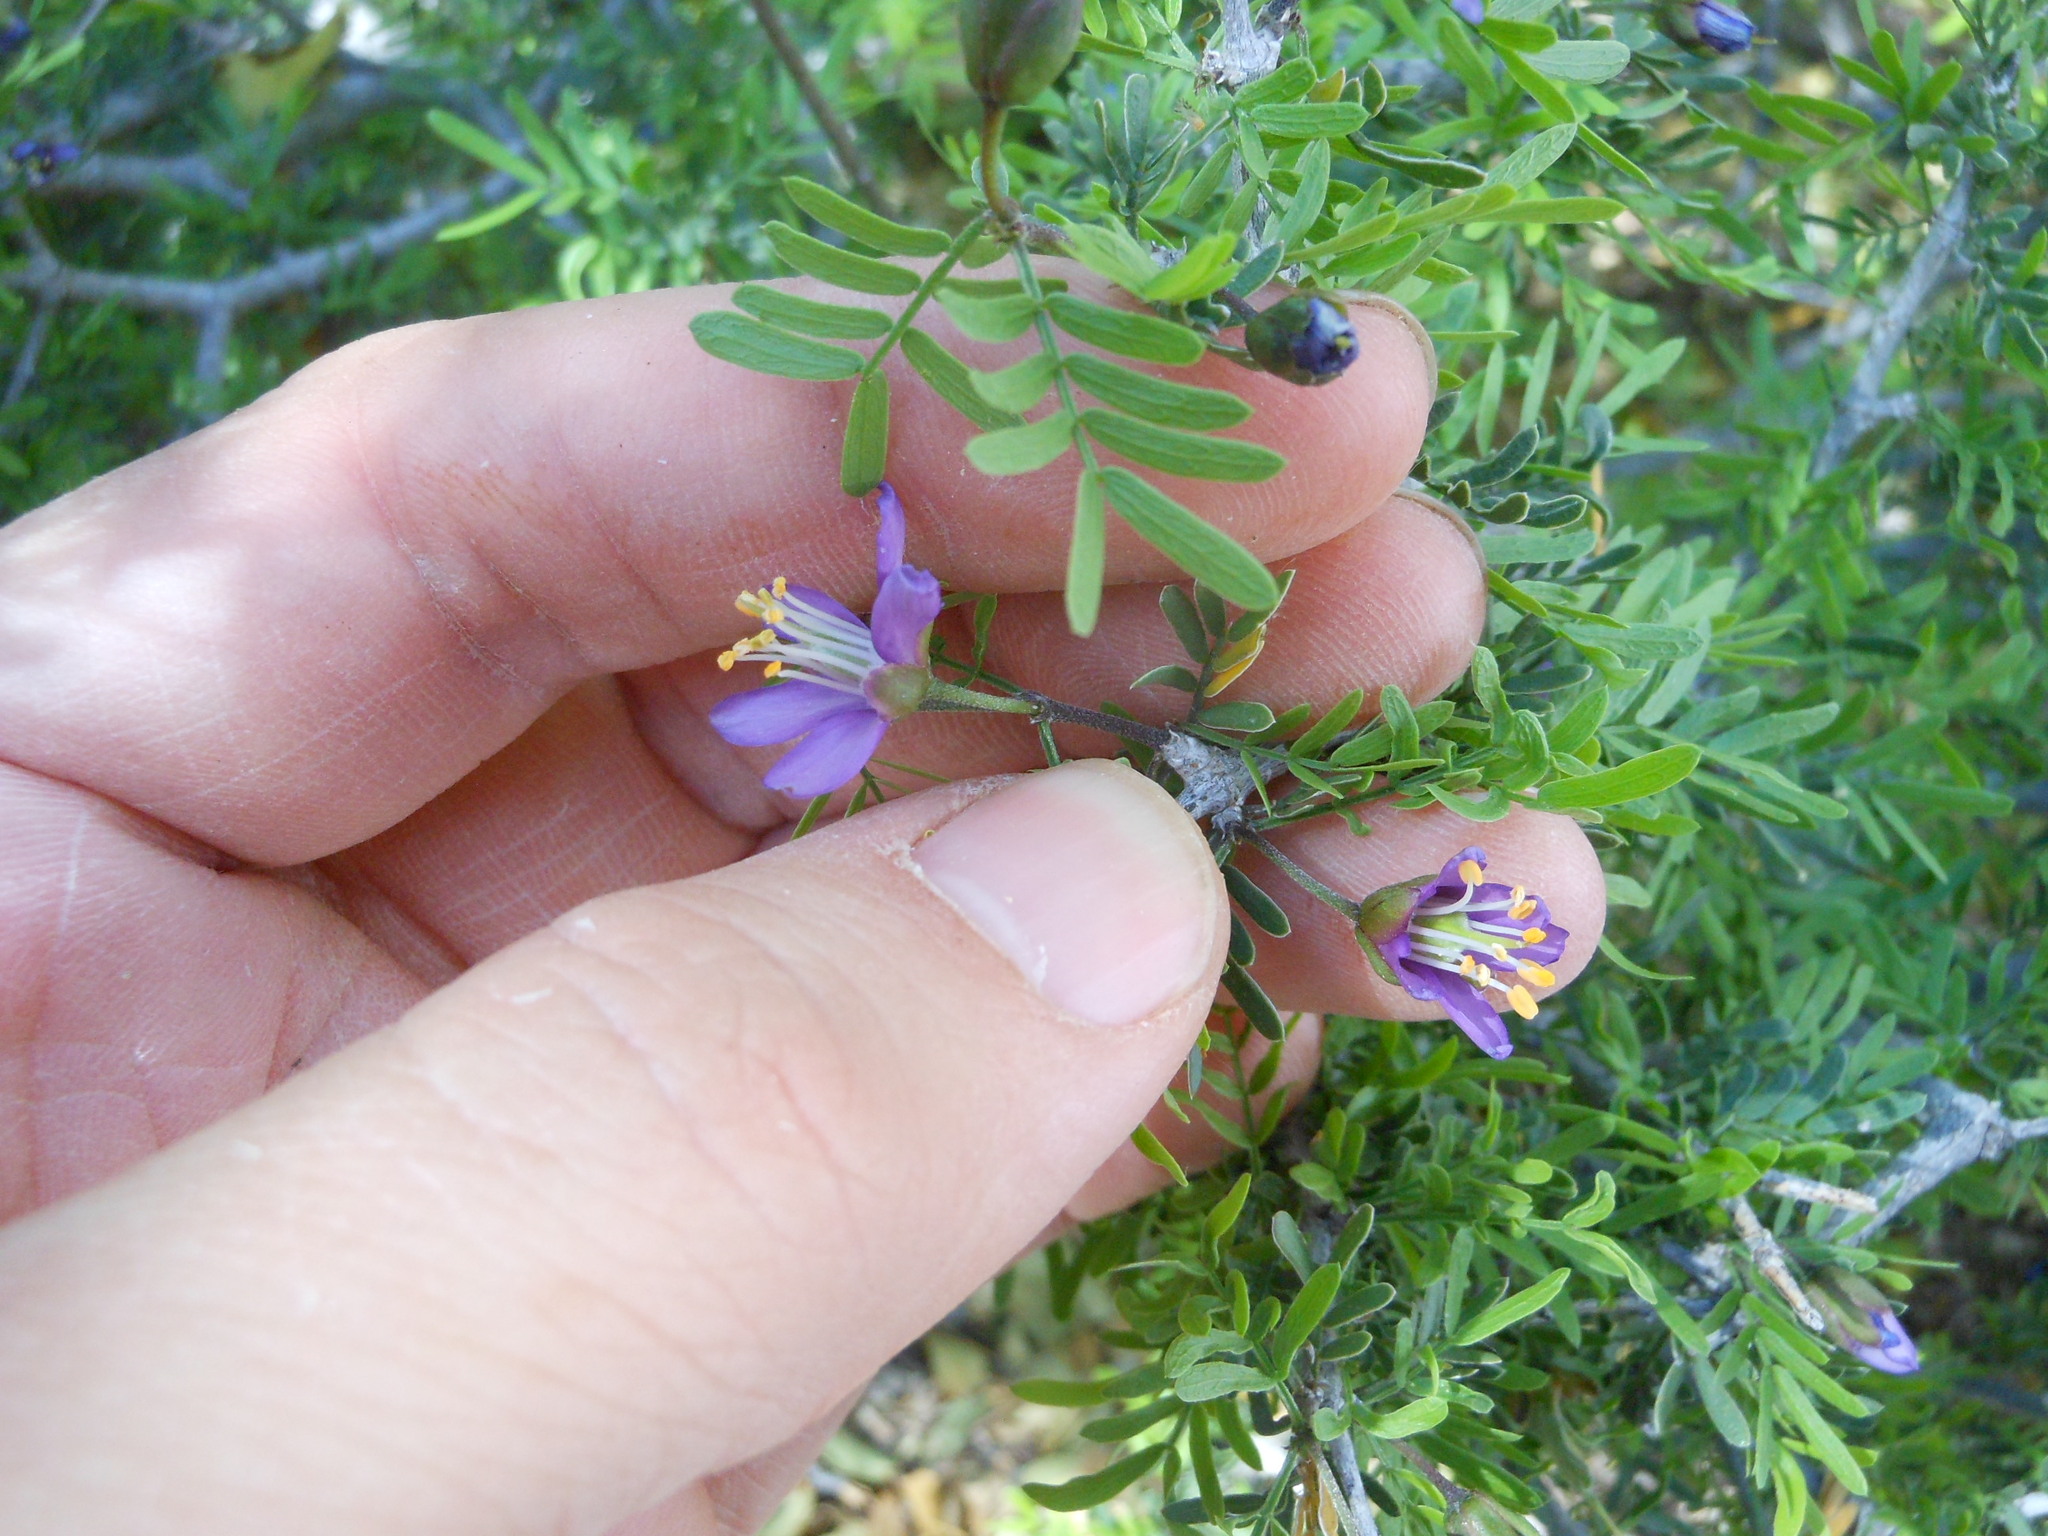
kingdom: Plantae
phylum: Tracheophyta
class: Magnoliopsida
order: Zygophyllales
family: Zygophyllaceae
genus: Porlieria
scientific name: Porlieria angustifolia
